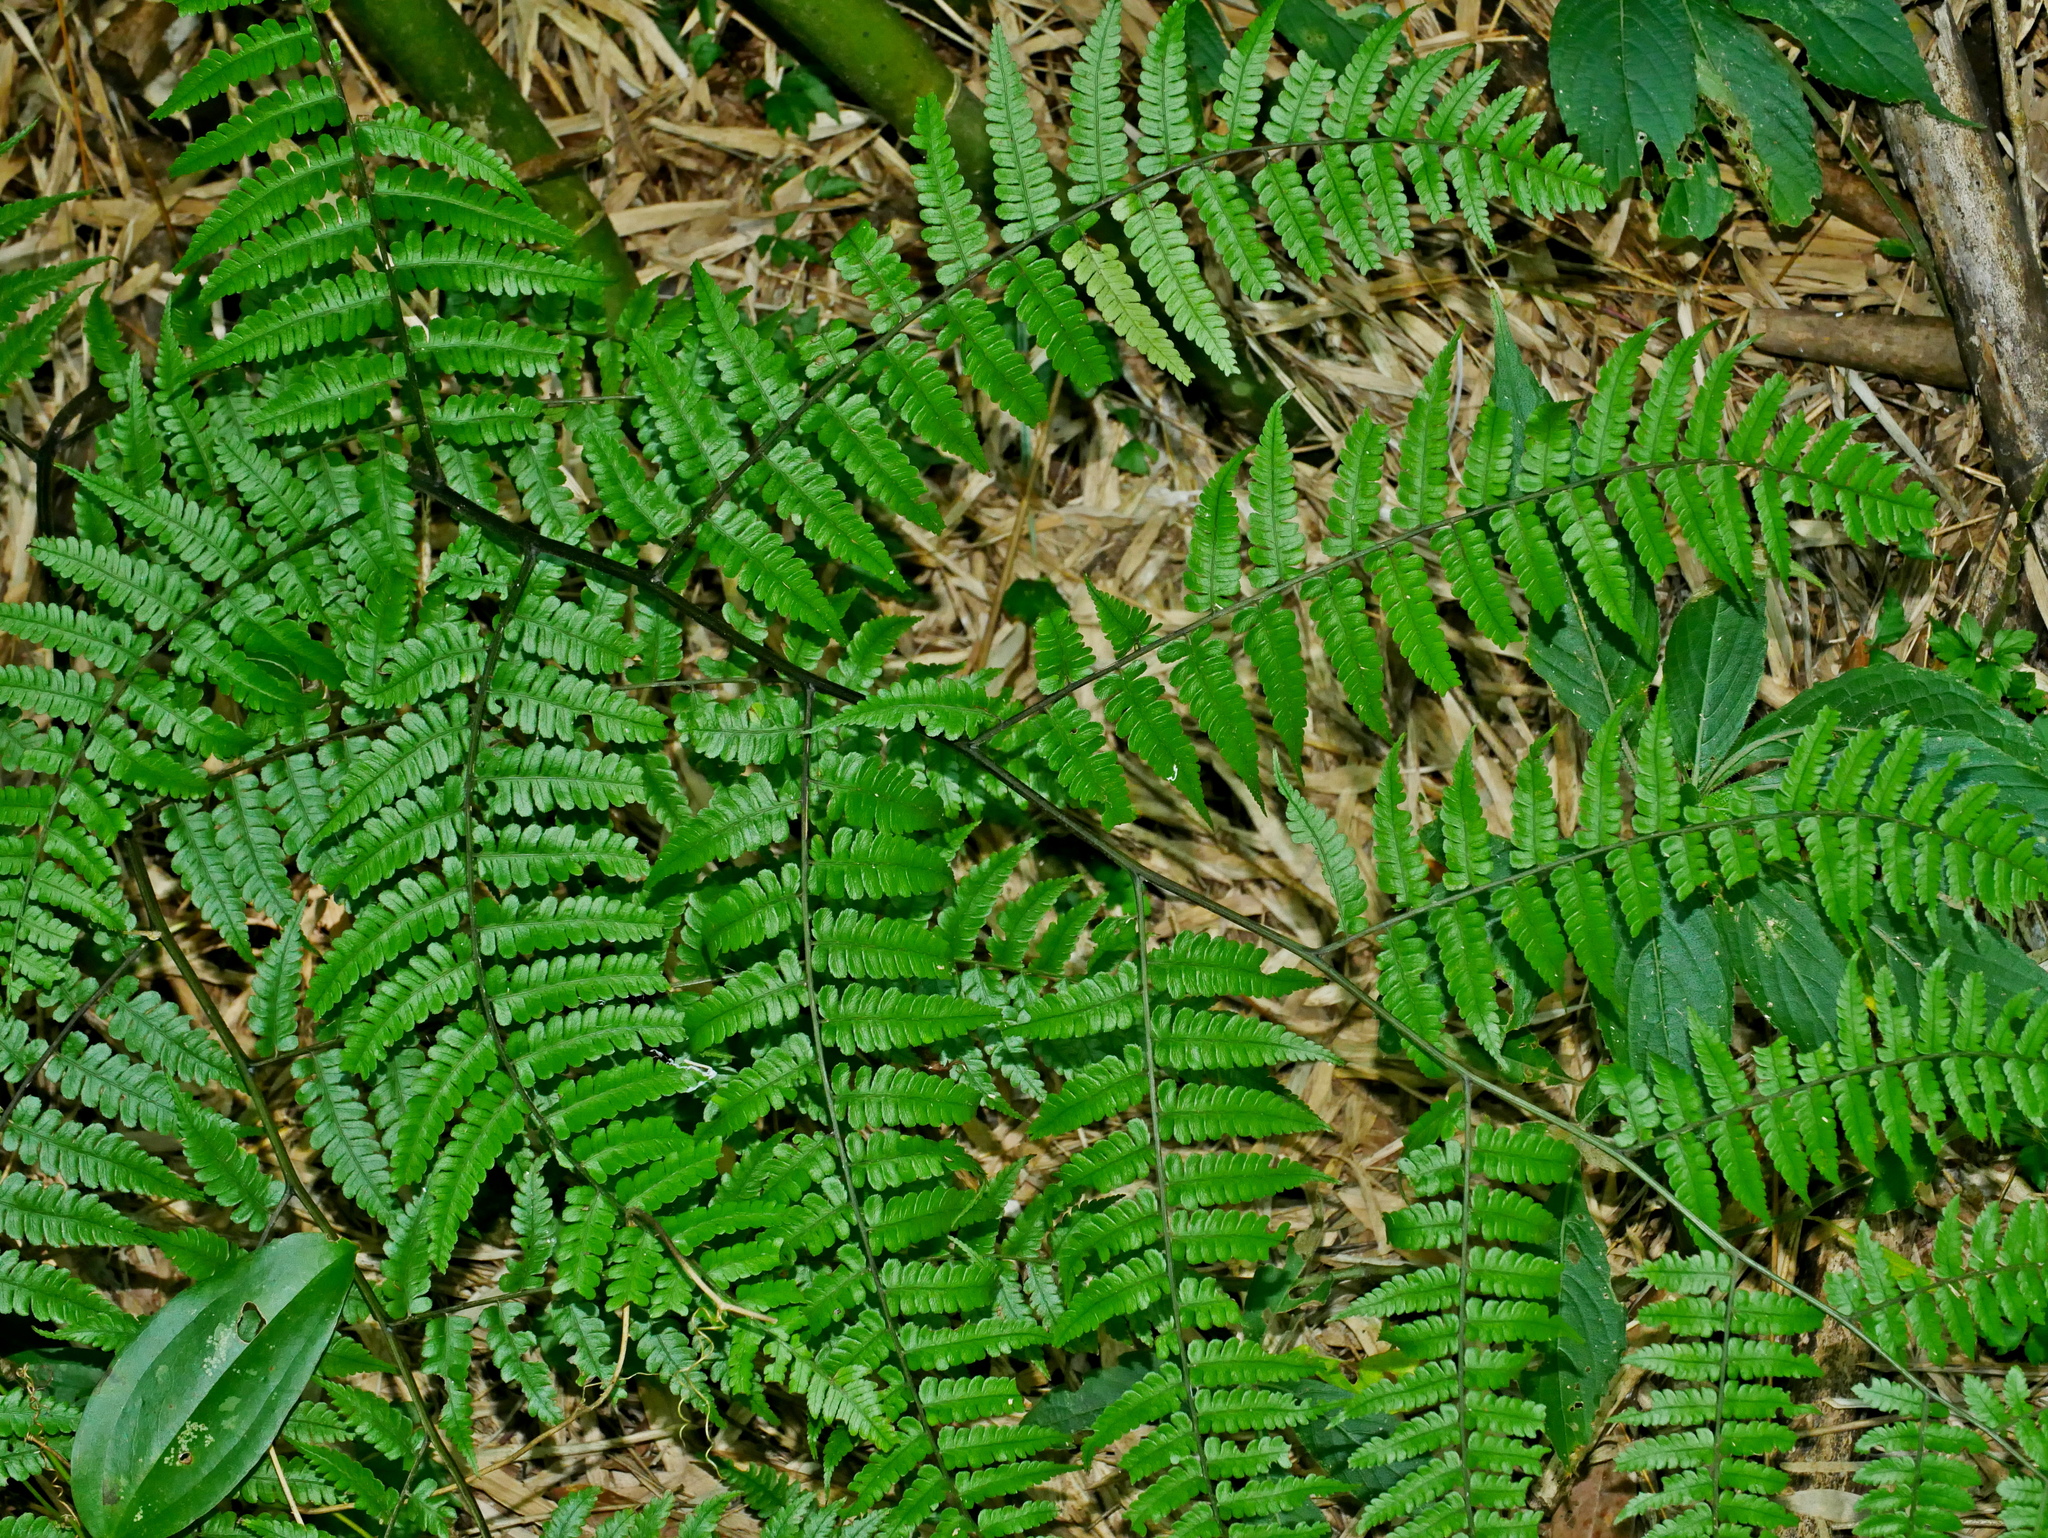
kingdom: Plantae
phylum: Tracheophyta
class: Polypodiopsida
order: Polypodiales
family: Athyriaceae
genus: Diplazium
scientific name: Diplazium laxifrons
